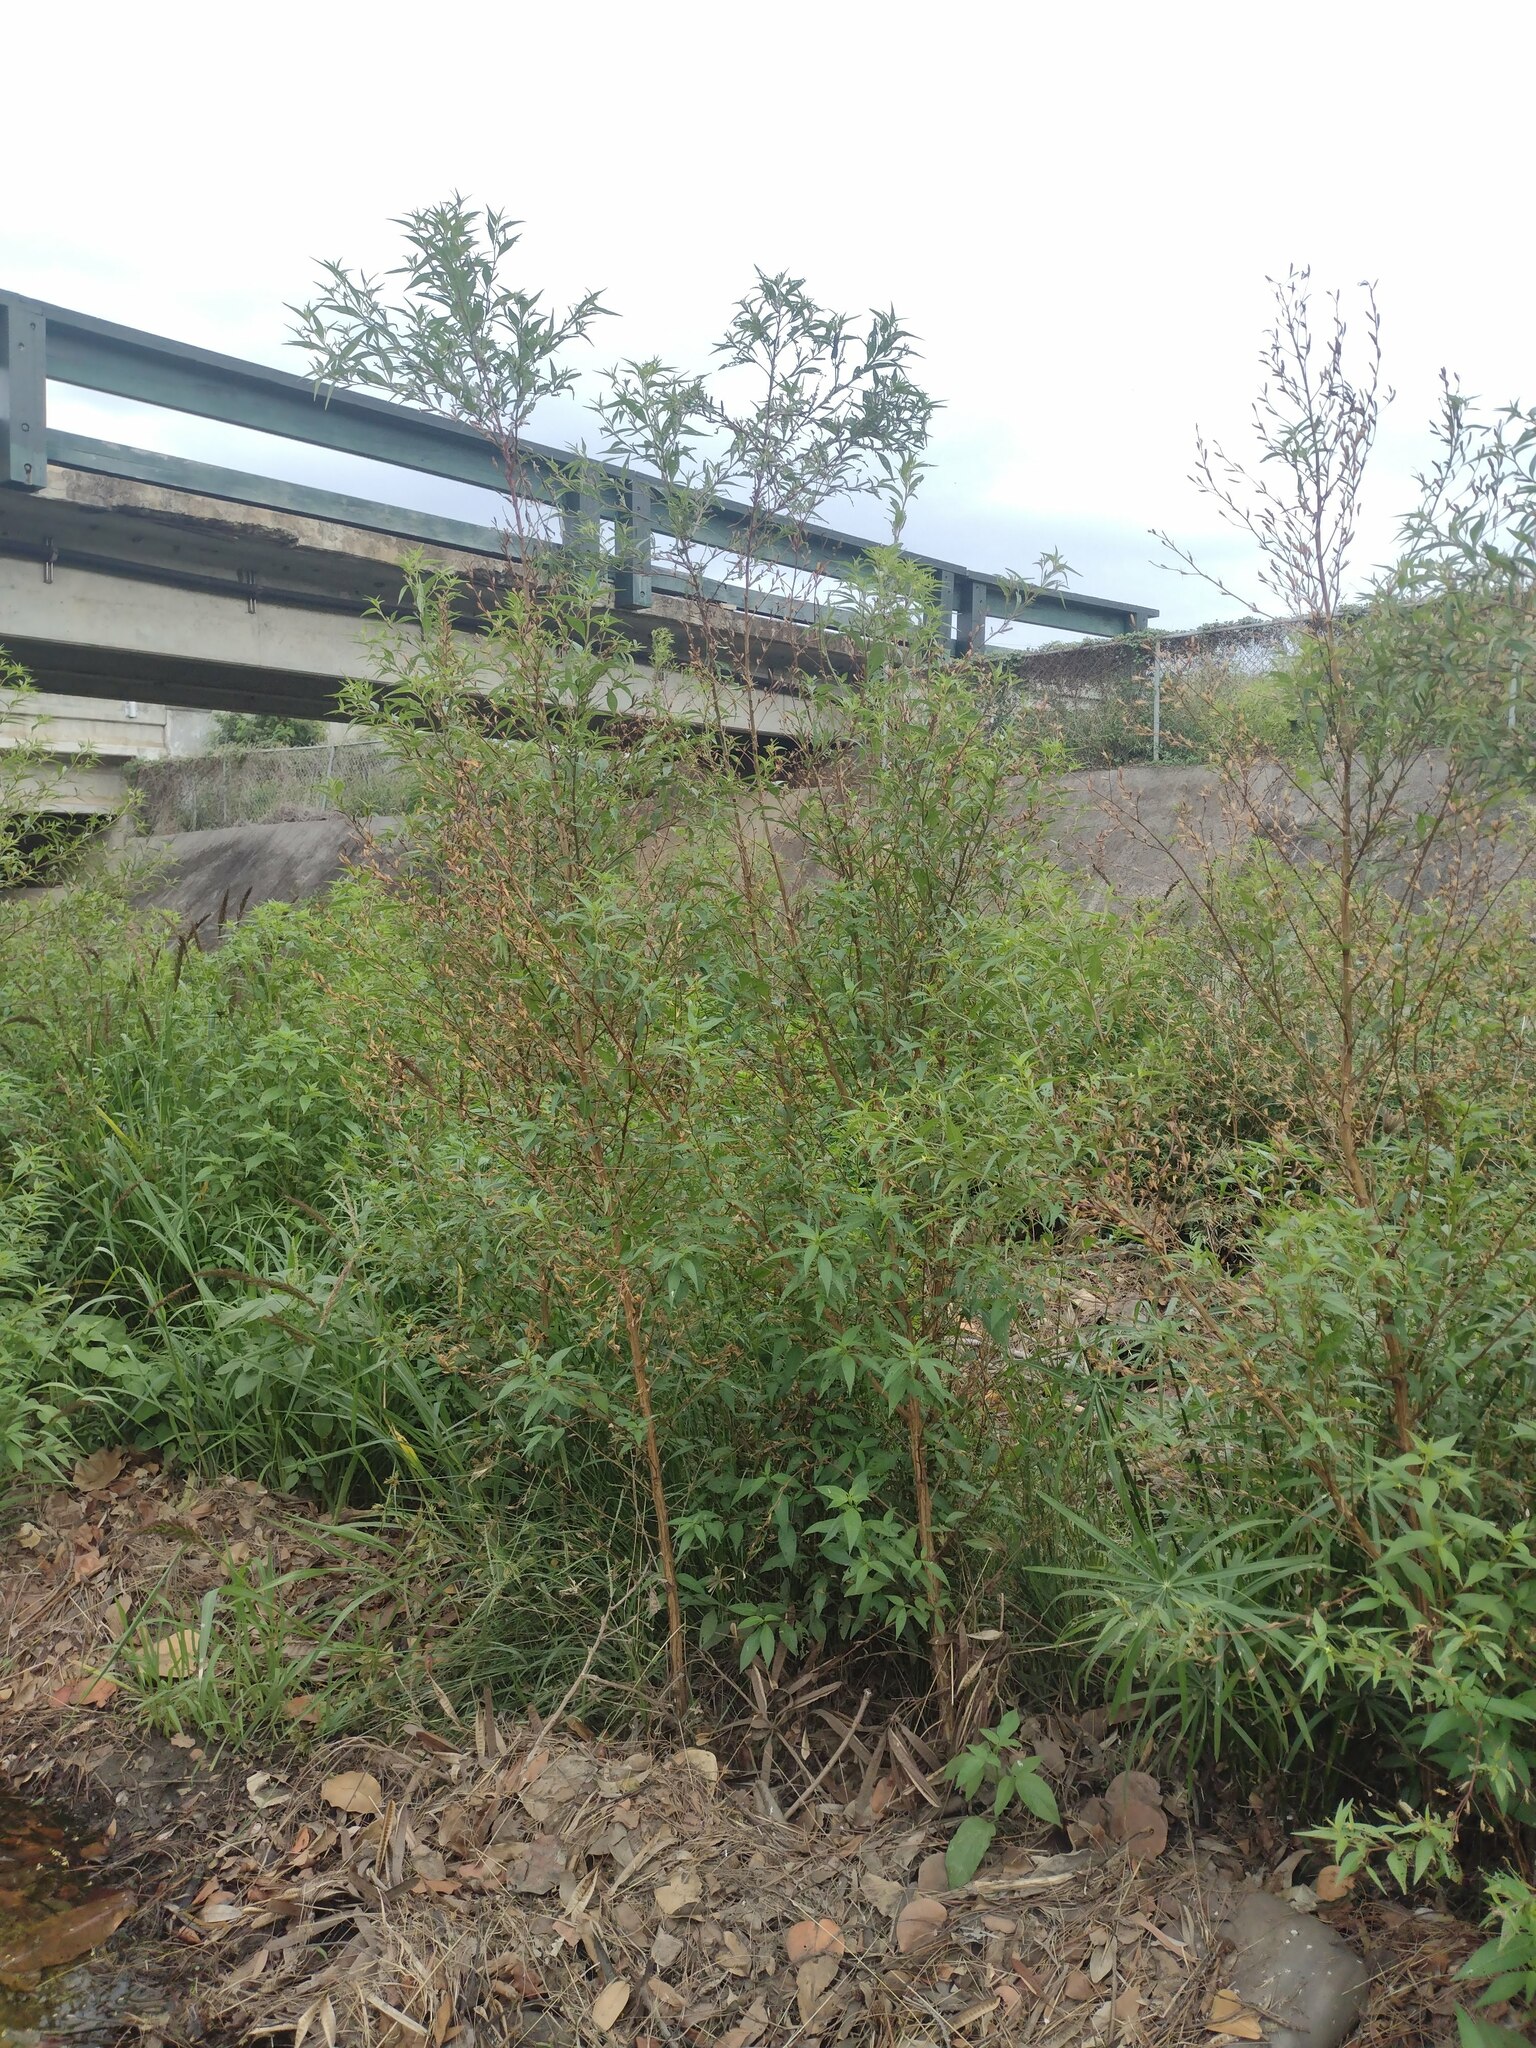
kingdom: Plantae
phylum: Tracheophyta
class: Magnoliopsida
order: Myrtales
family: Onagraceae
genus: Ludwigia
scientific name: Ludwigia erecta
